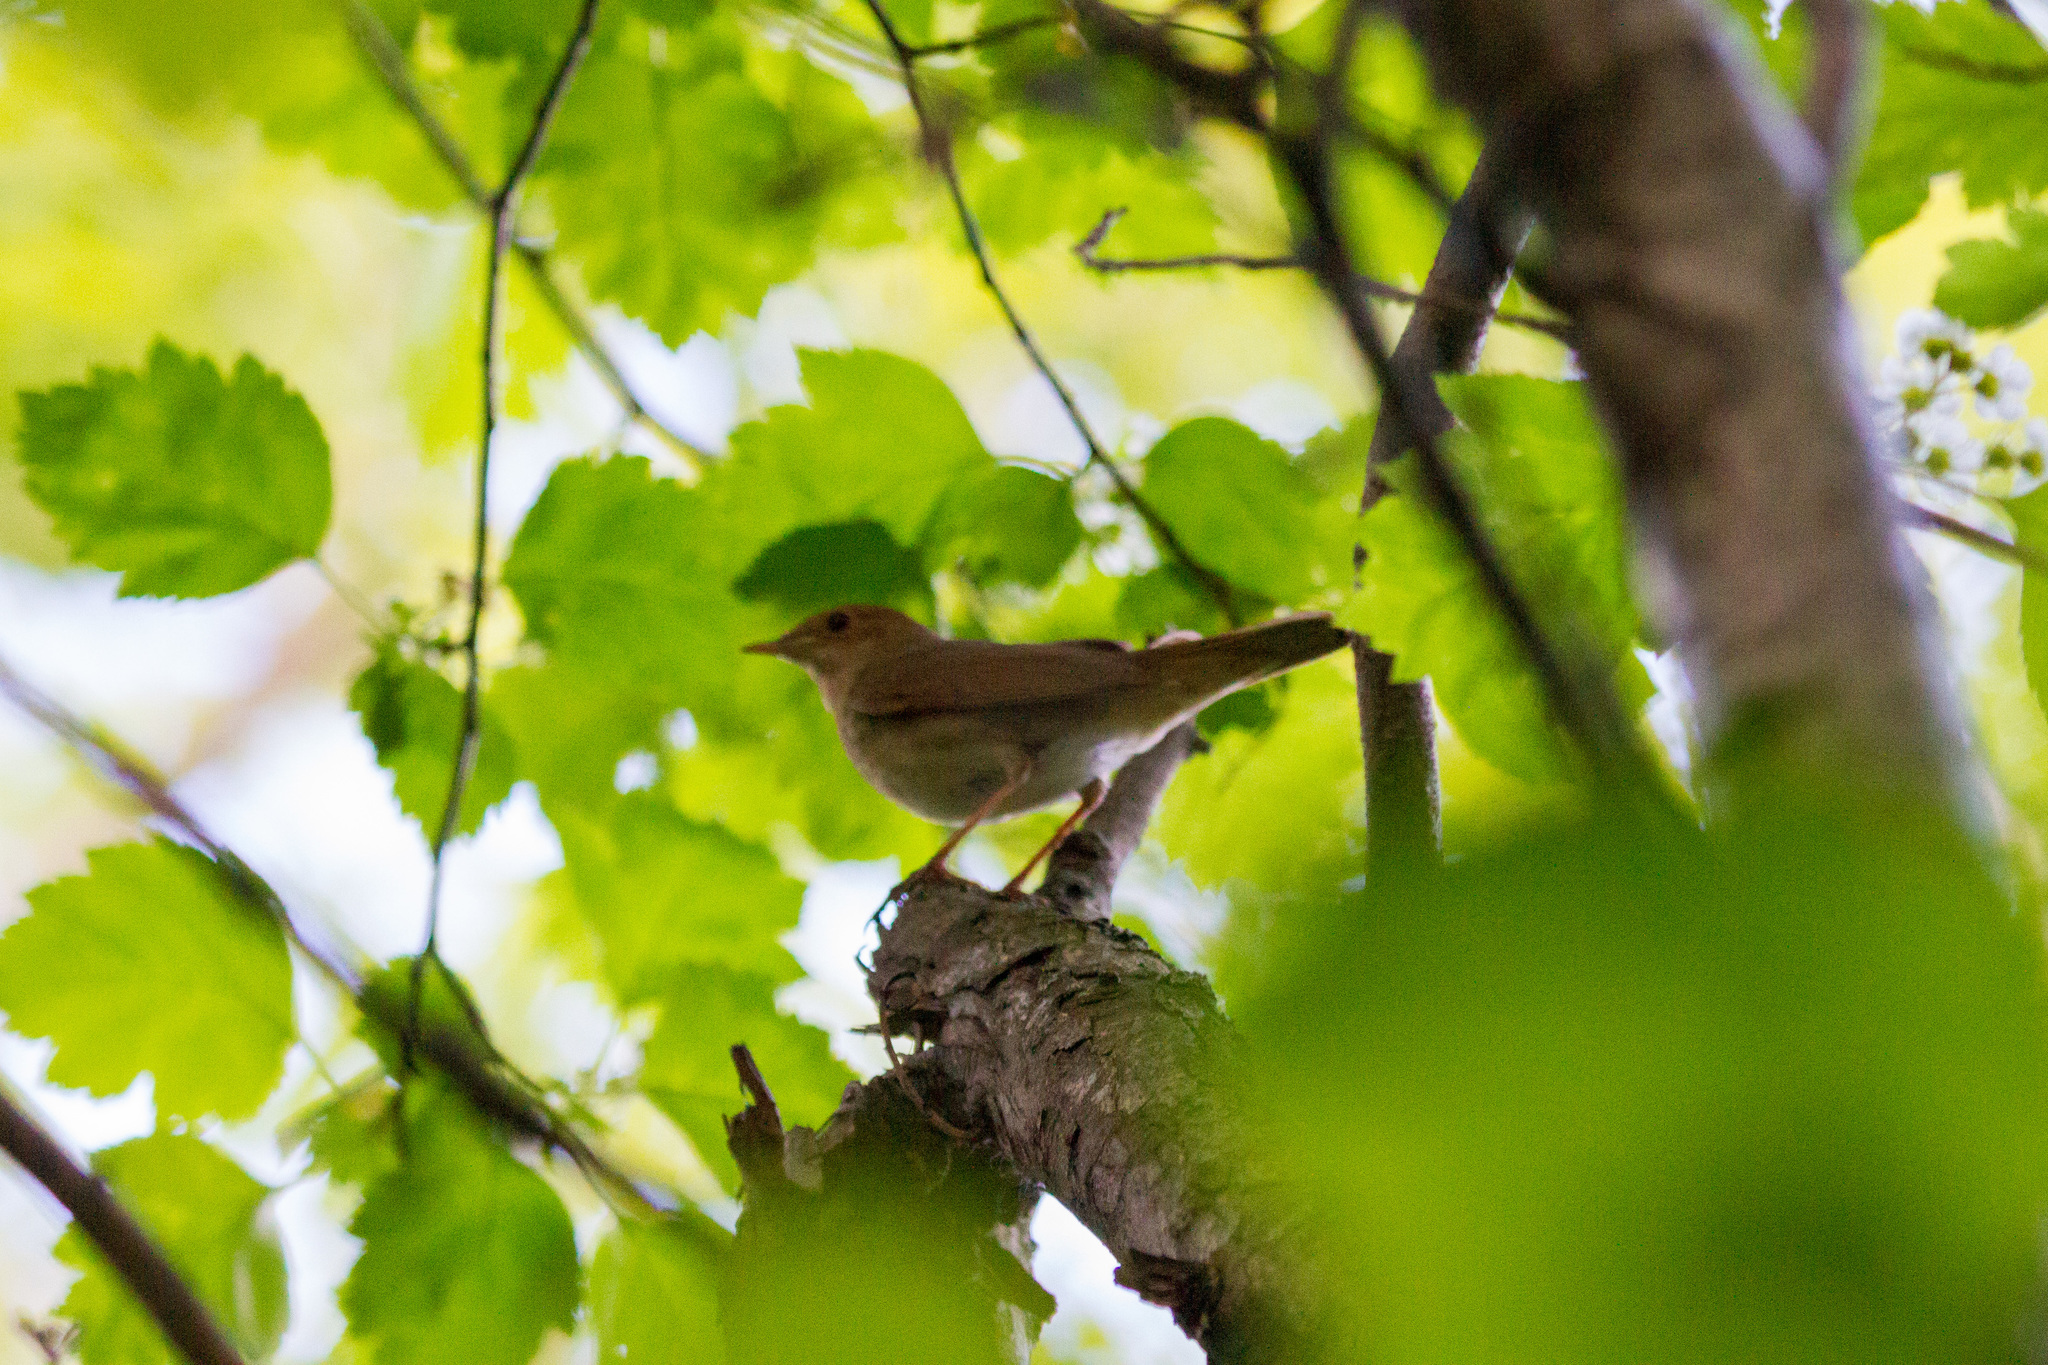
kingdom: Animalia
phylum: Chordata
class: Aves
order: Passeriformes
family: Muscicapidae
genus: Luscinia
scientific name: Luscinia luscinia
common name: Thrush nightingale
